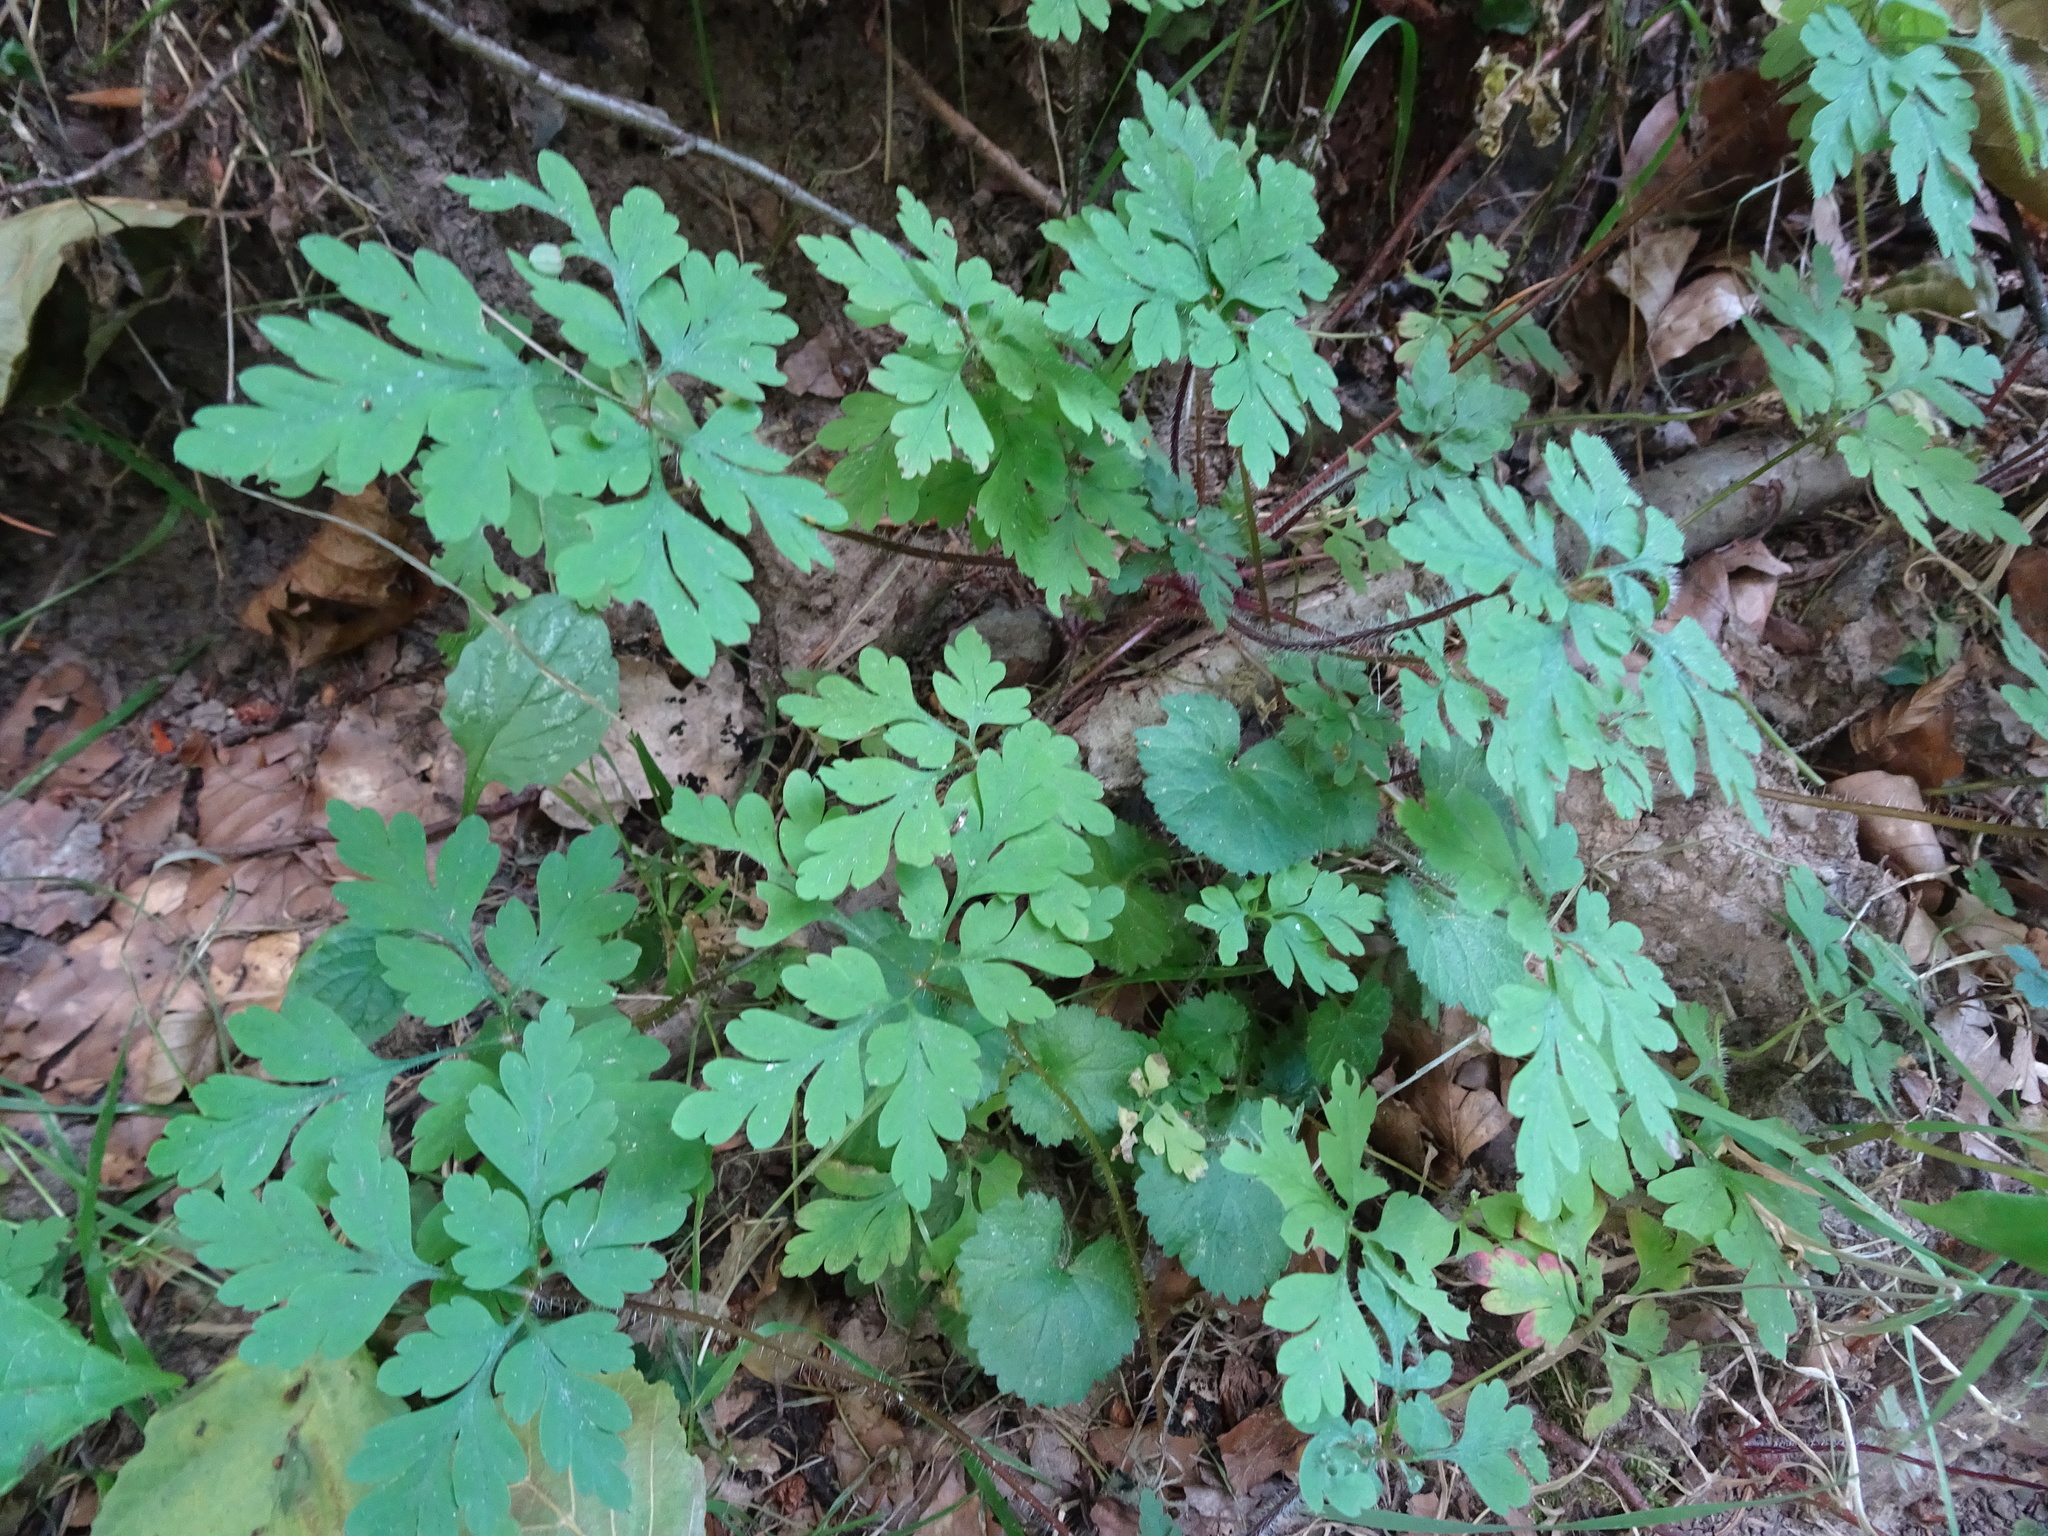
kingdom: Plantae
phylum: Tracheophyta
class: Magnoliopsida
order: Geraniales
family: Geraniaceae
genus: Geranium
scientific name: Geranium robertianum
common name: Herb-robert
